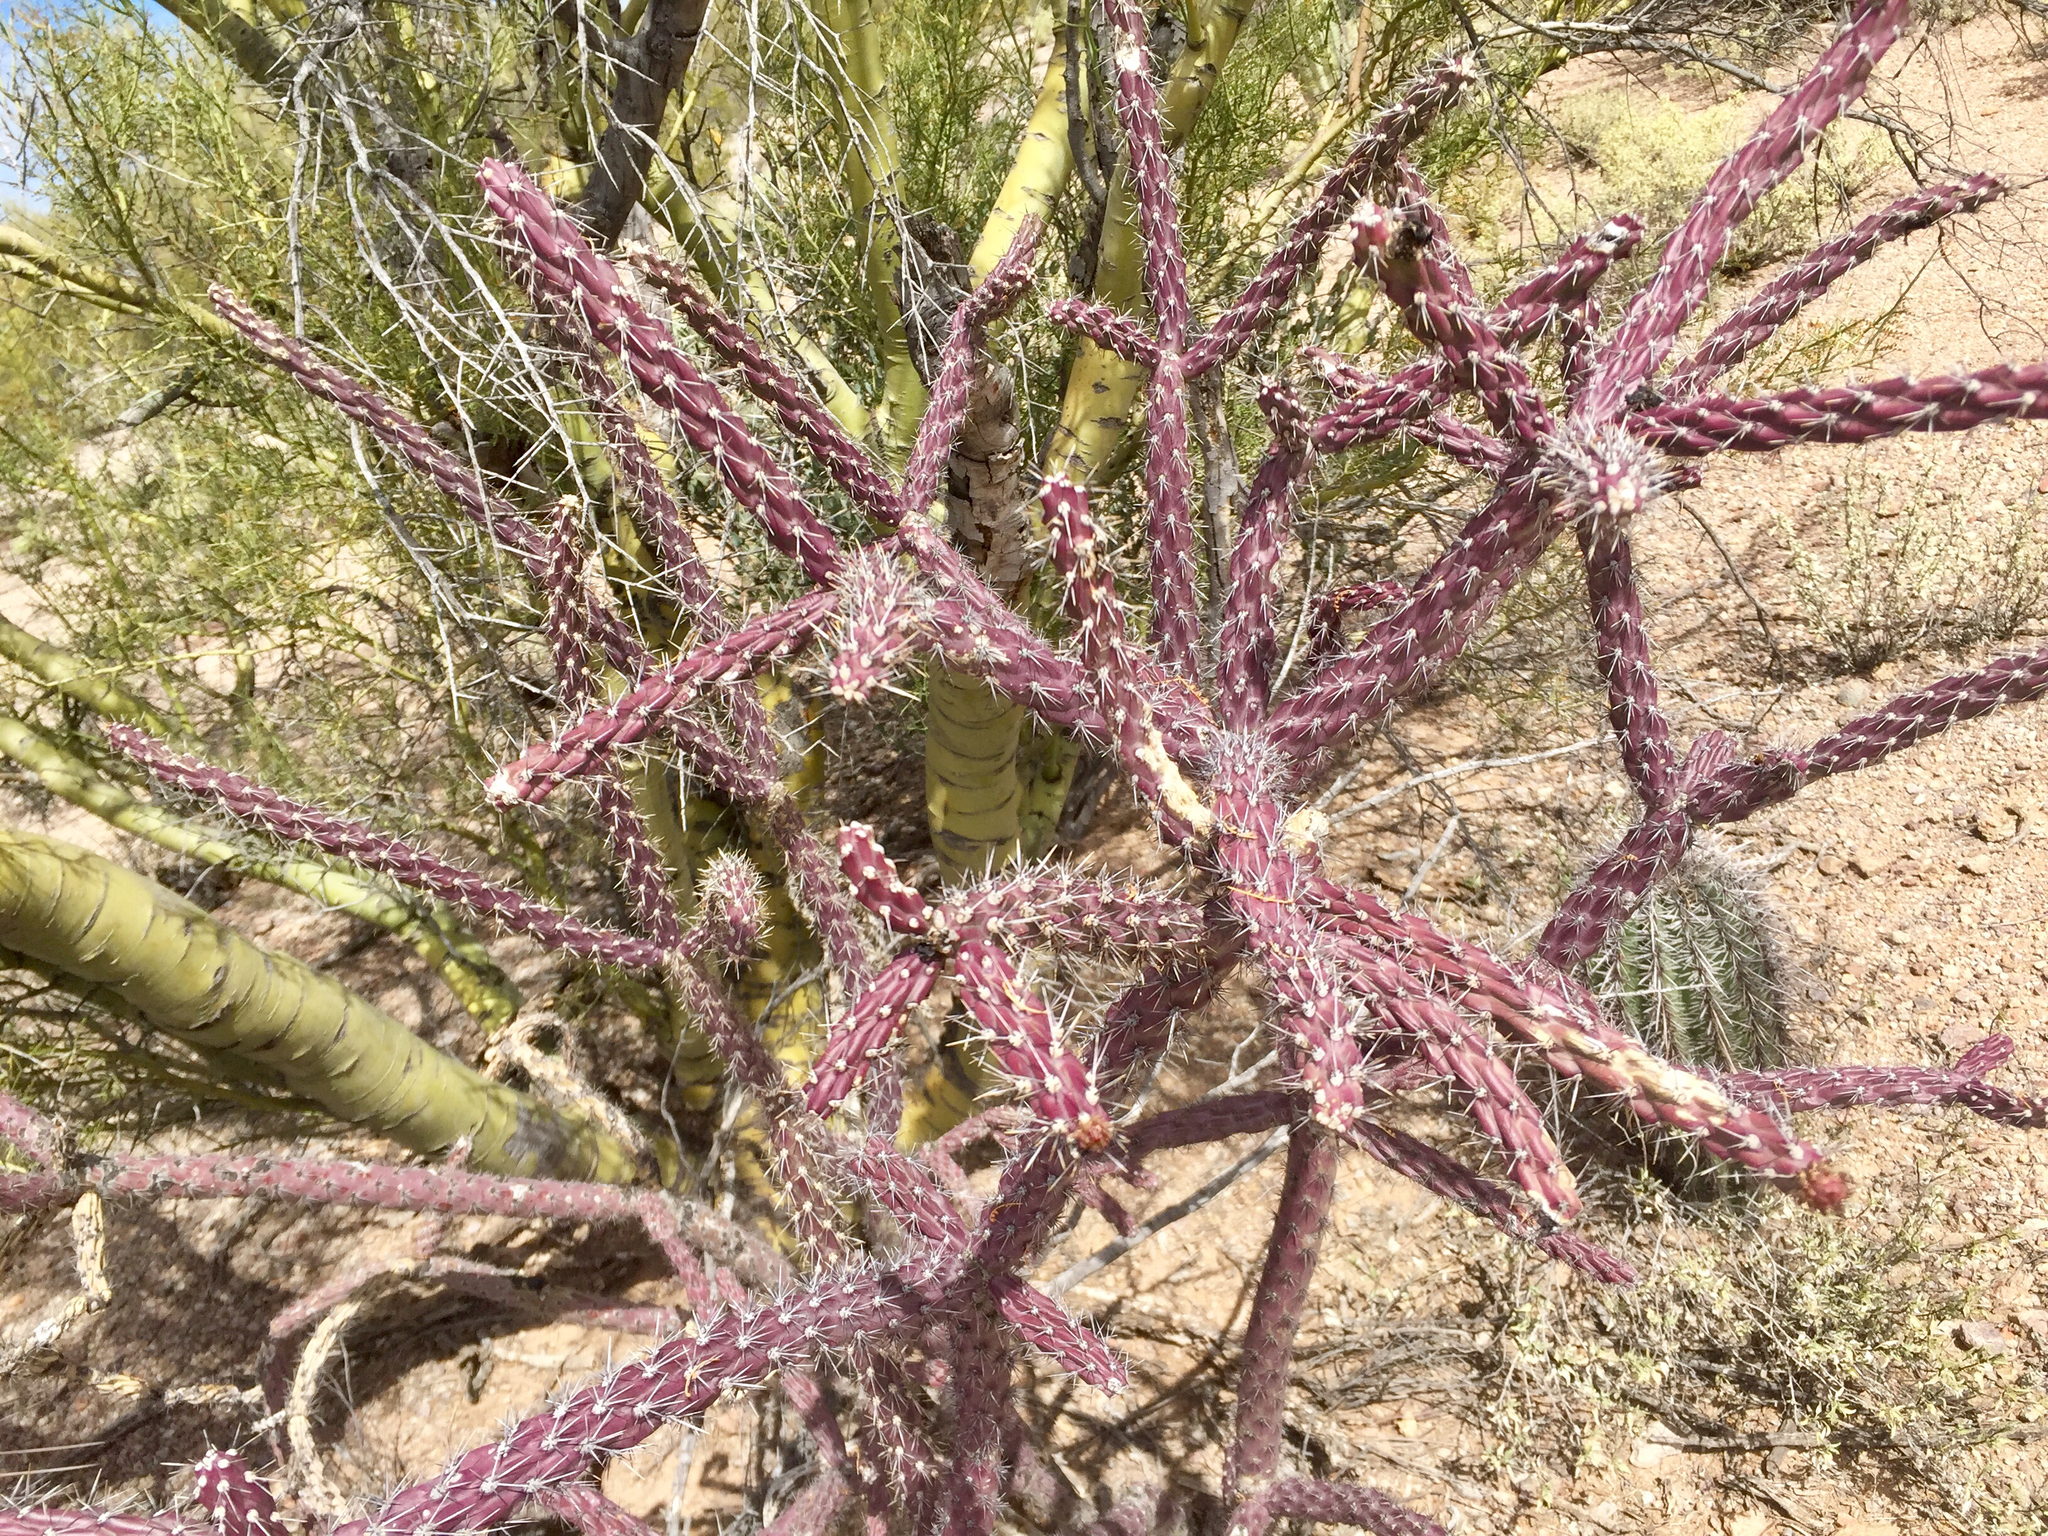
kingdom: Plantae
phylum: Tracheophyta
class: Magnoliopsida
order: Caryophyllales
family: Cactaceae
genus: Cylindropuntia
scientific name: Cylindropuntia thurberi
